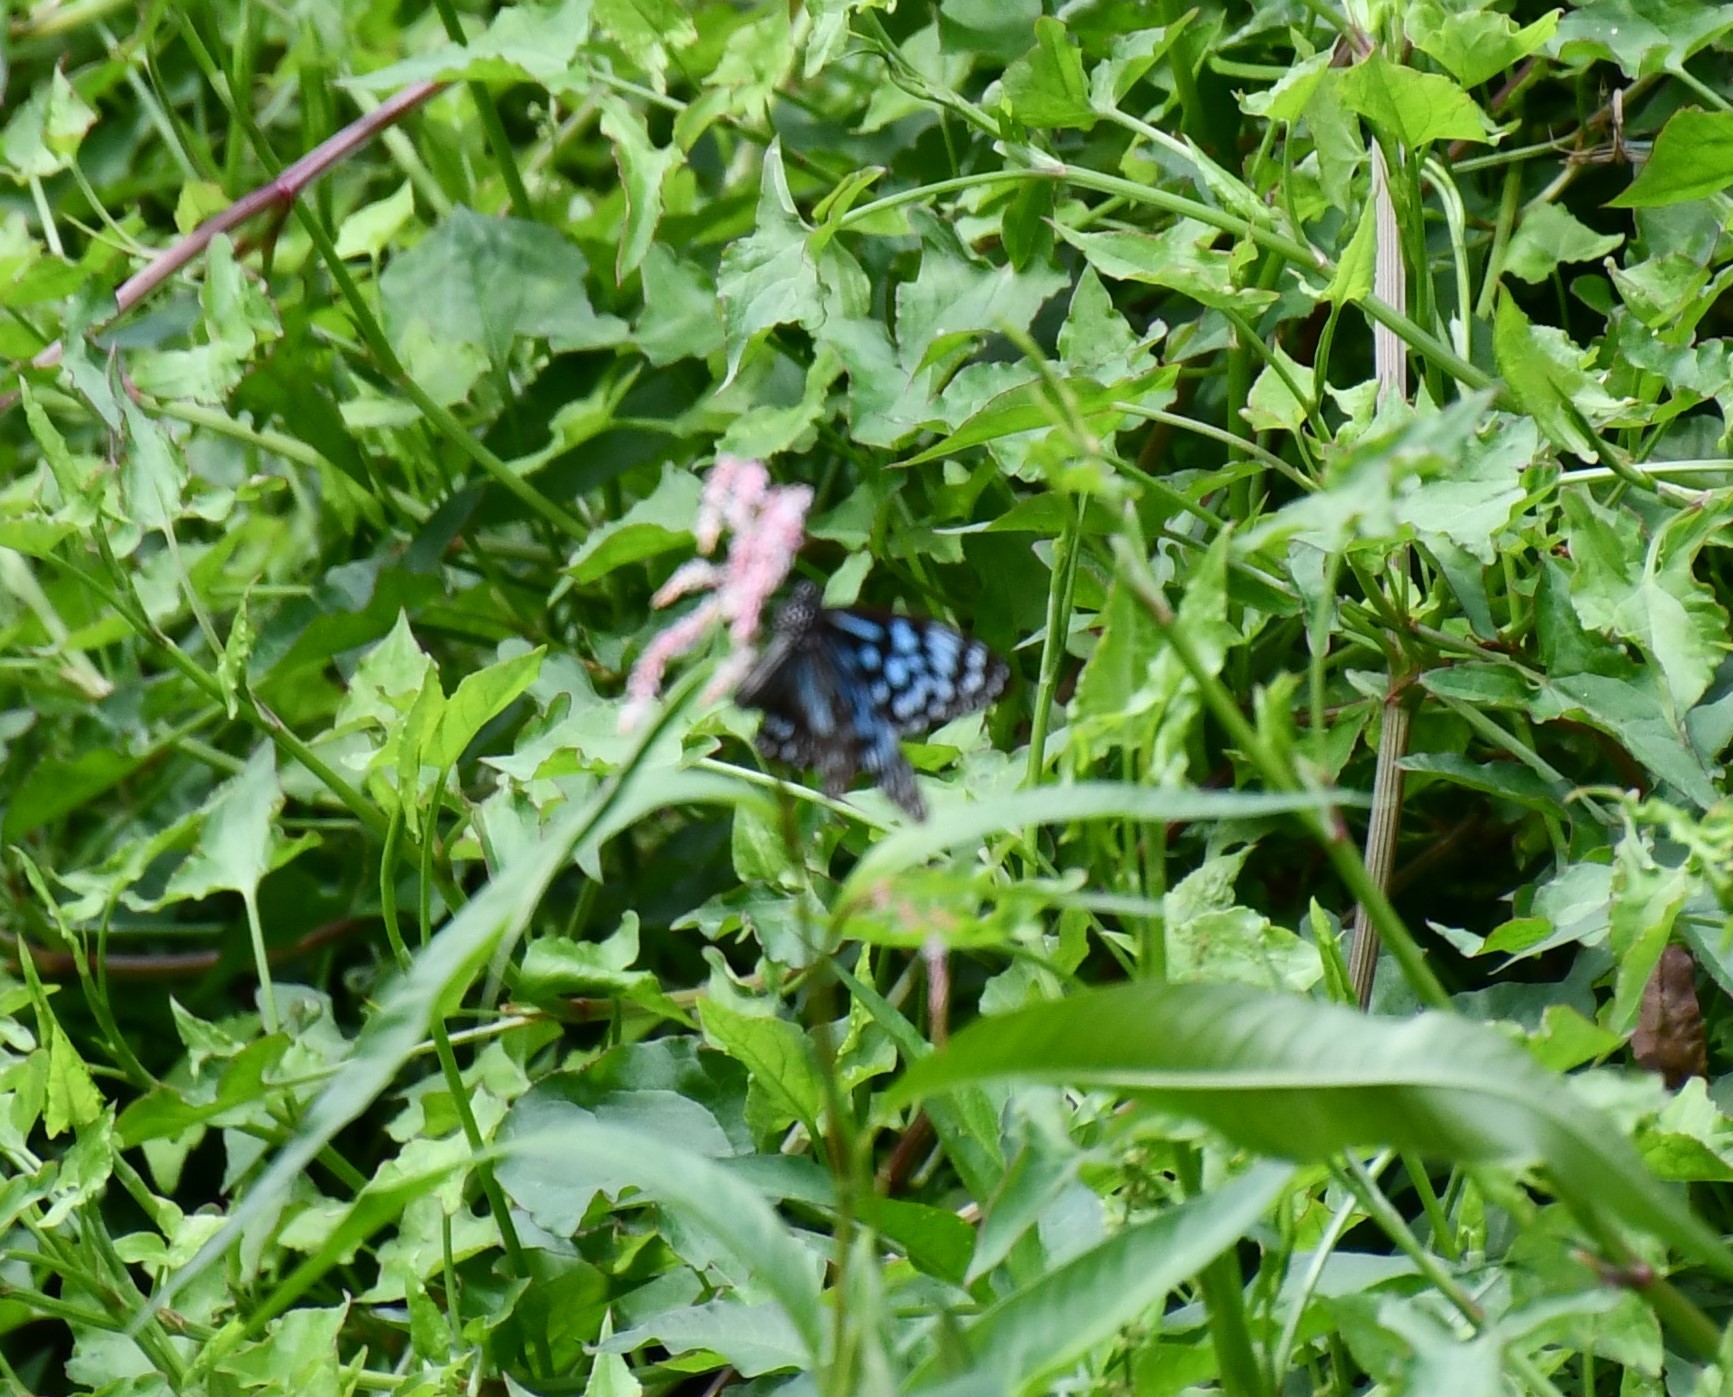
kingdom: Animalia
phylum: Arthropoda
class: Insecta
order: Lepidoptera
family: Nymphalidae
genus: Tirumala
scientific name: Tirumala hamata
